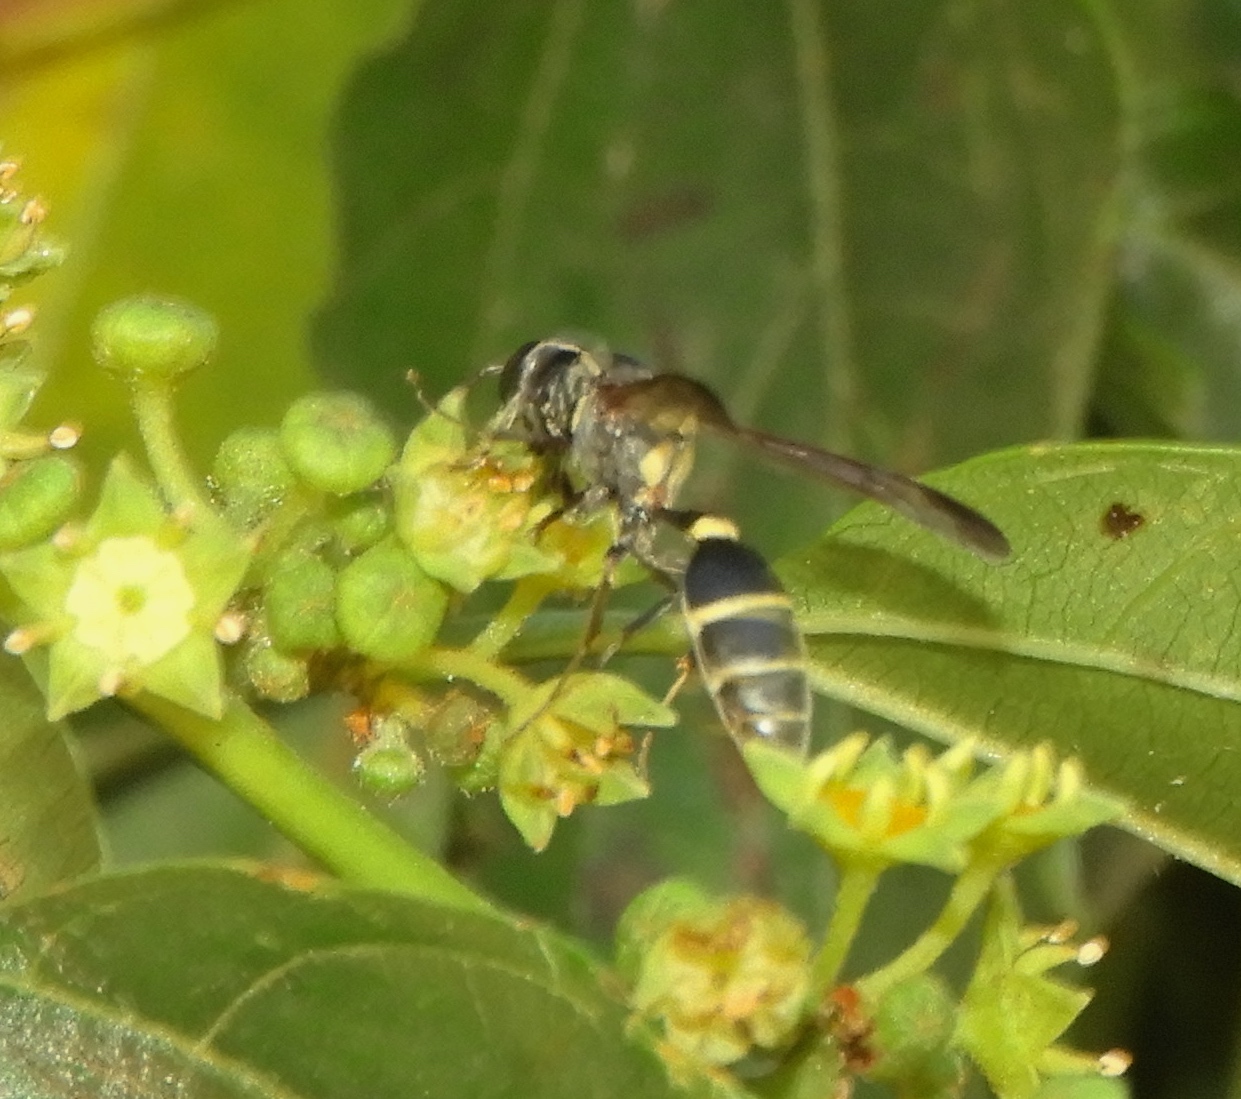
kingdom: Animalia
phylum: Arthropoda
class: Insecta
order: Hymenoptera
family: Vespidae
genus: Myrapetra
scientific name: Myrapetra
